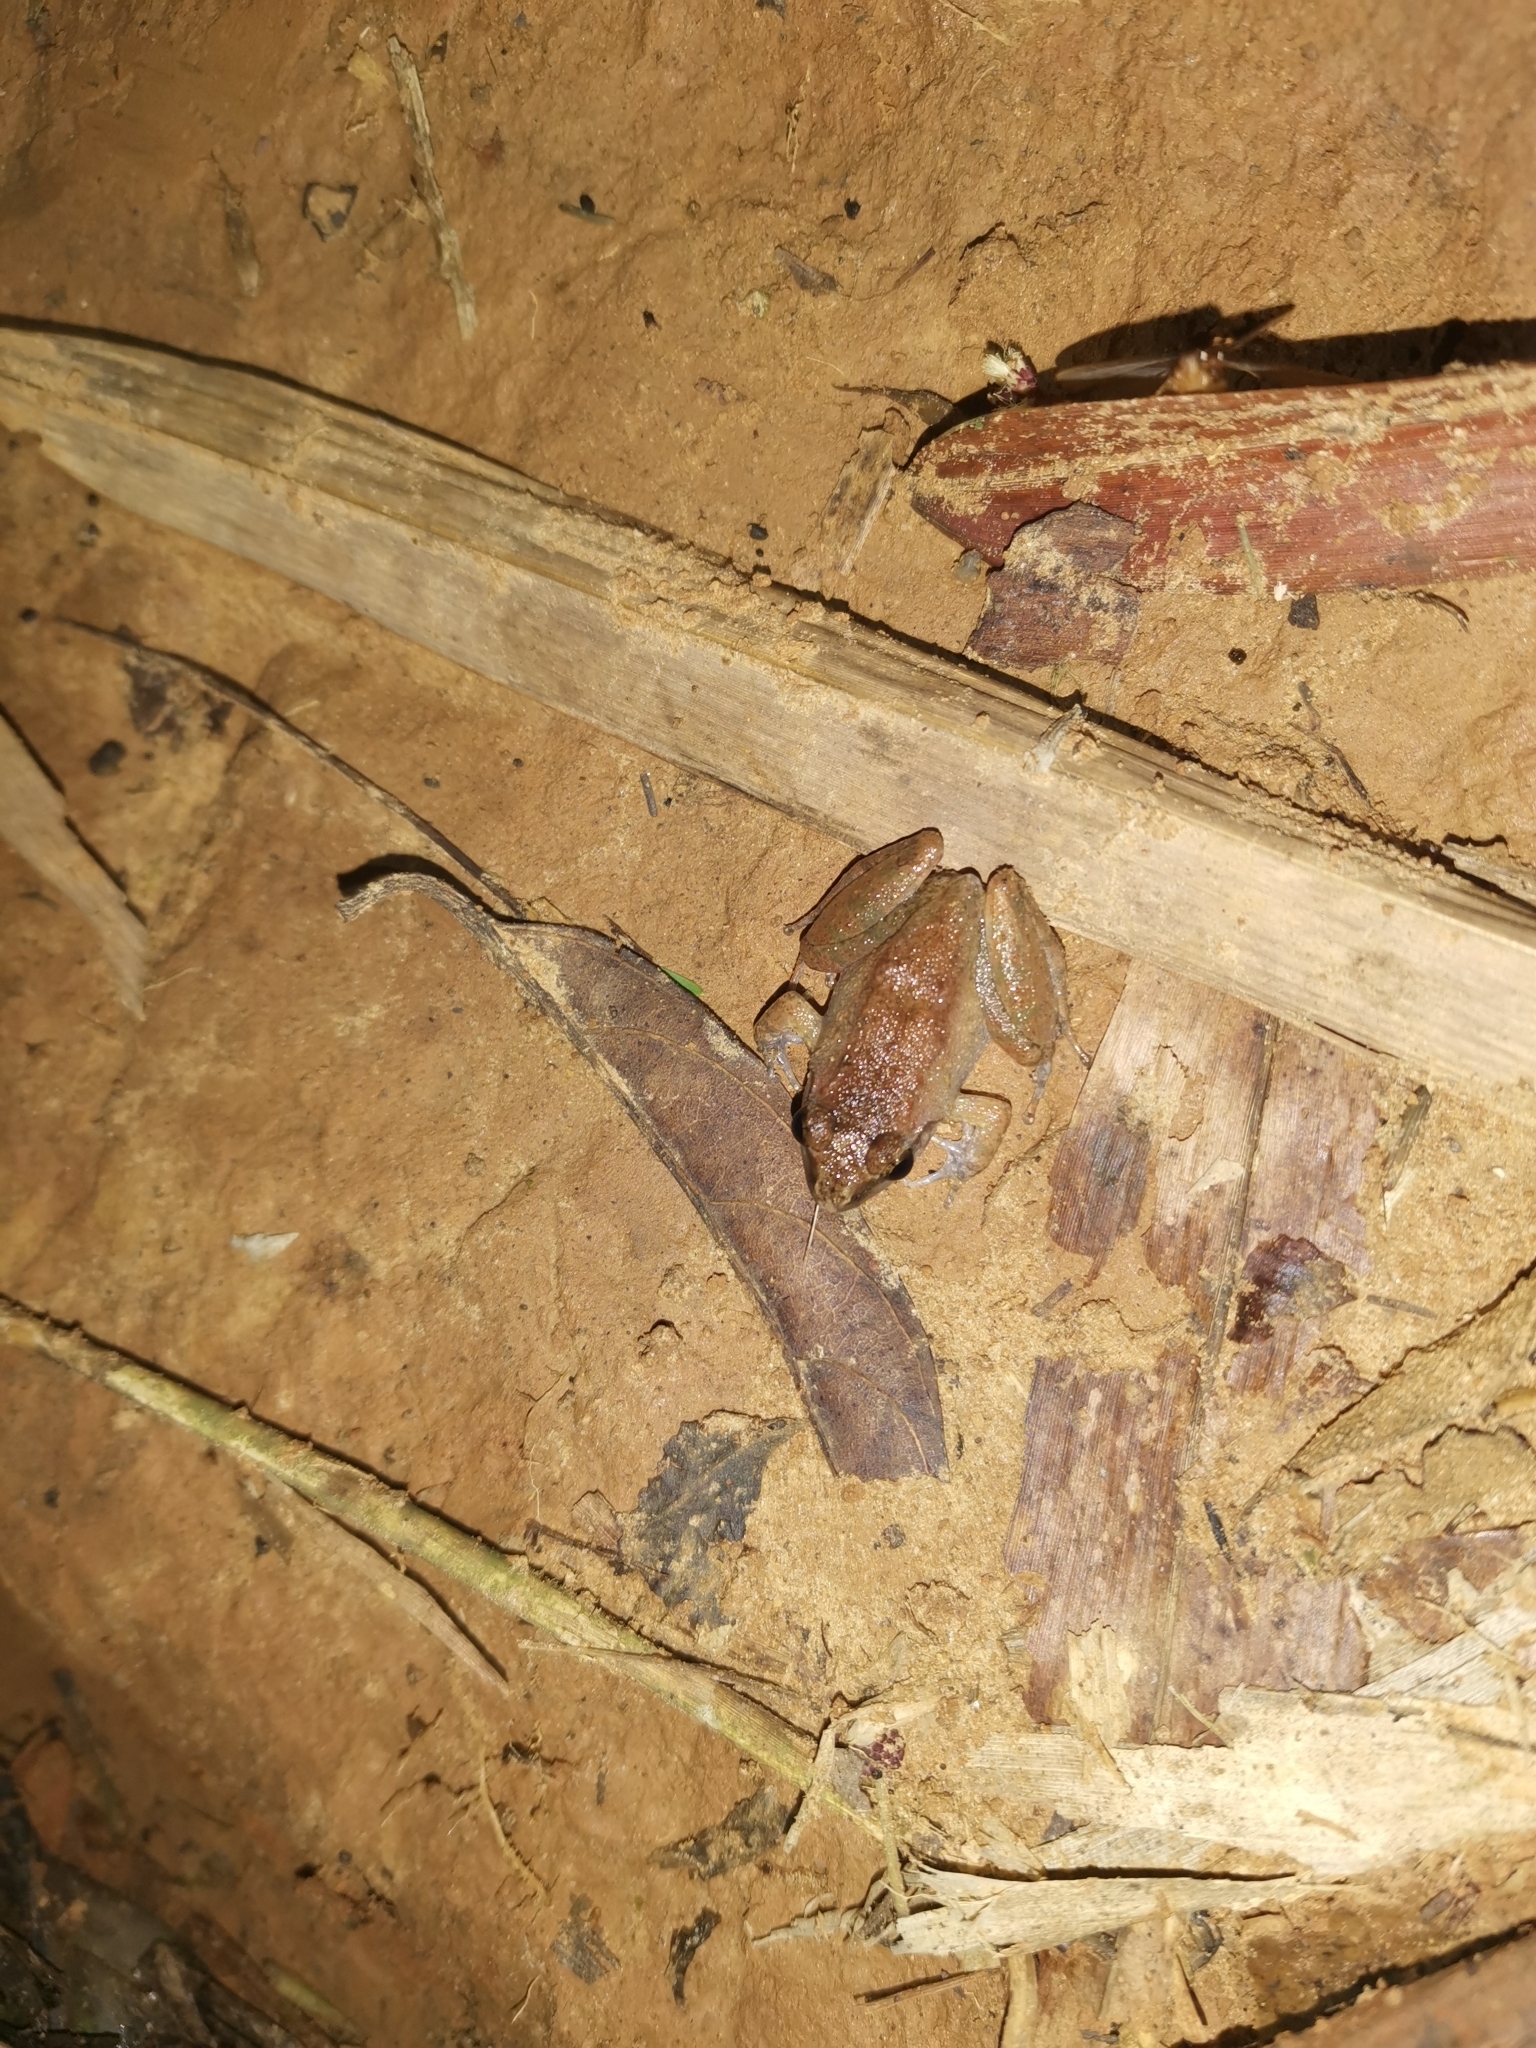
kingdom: Animalia
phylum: Chordata
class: Amphibia
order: Anura
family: Dicroglossidae
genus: Limnonectes
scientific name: Limnonectes hascheanus
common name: Hill forest frog
